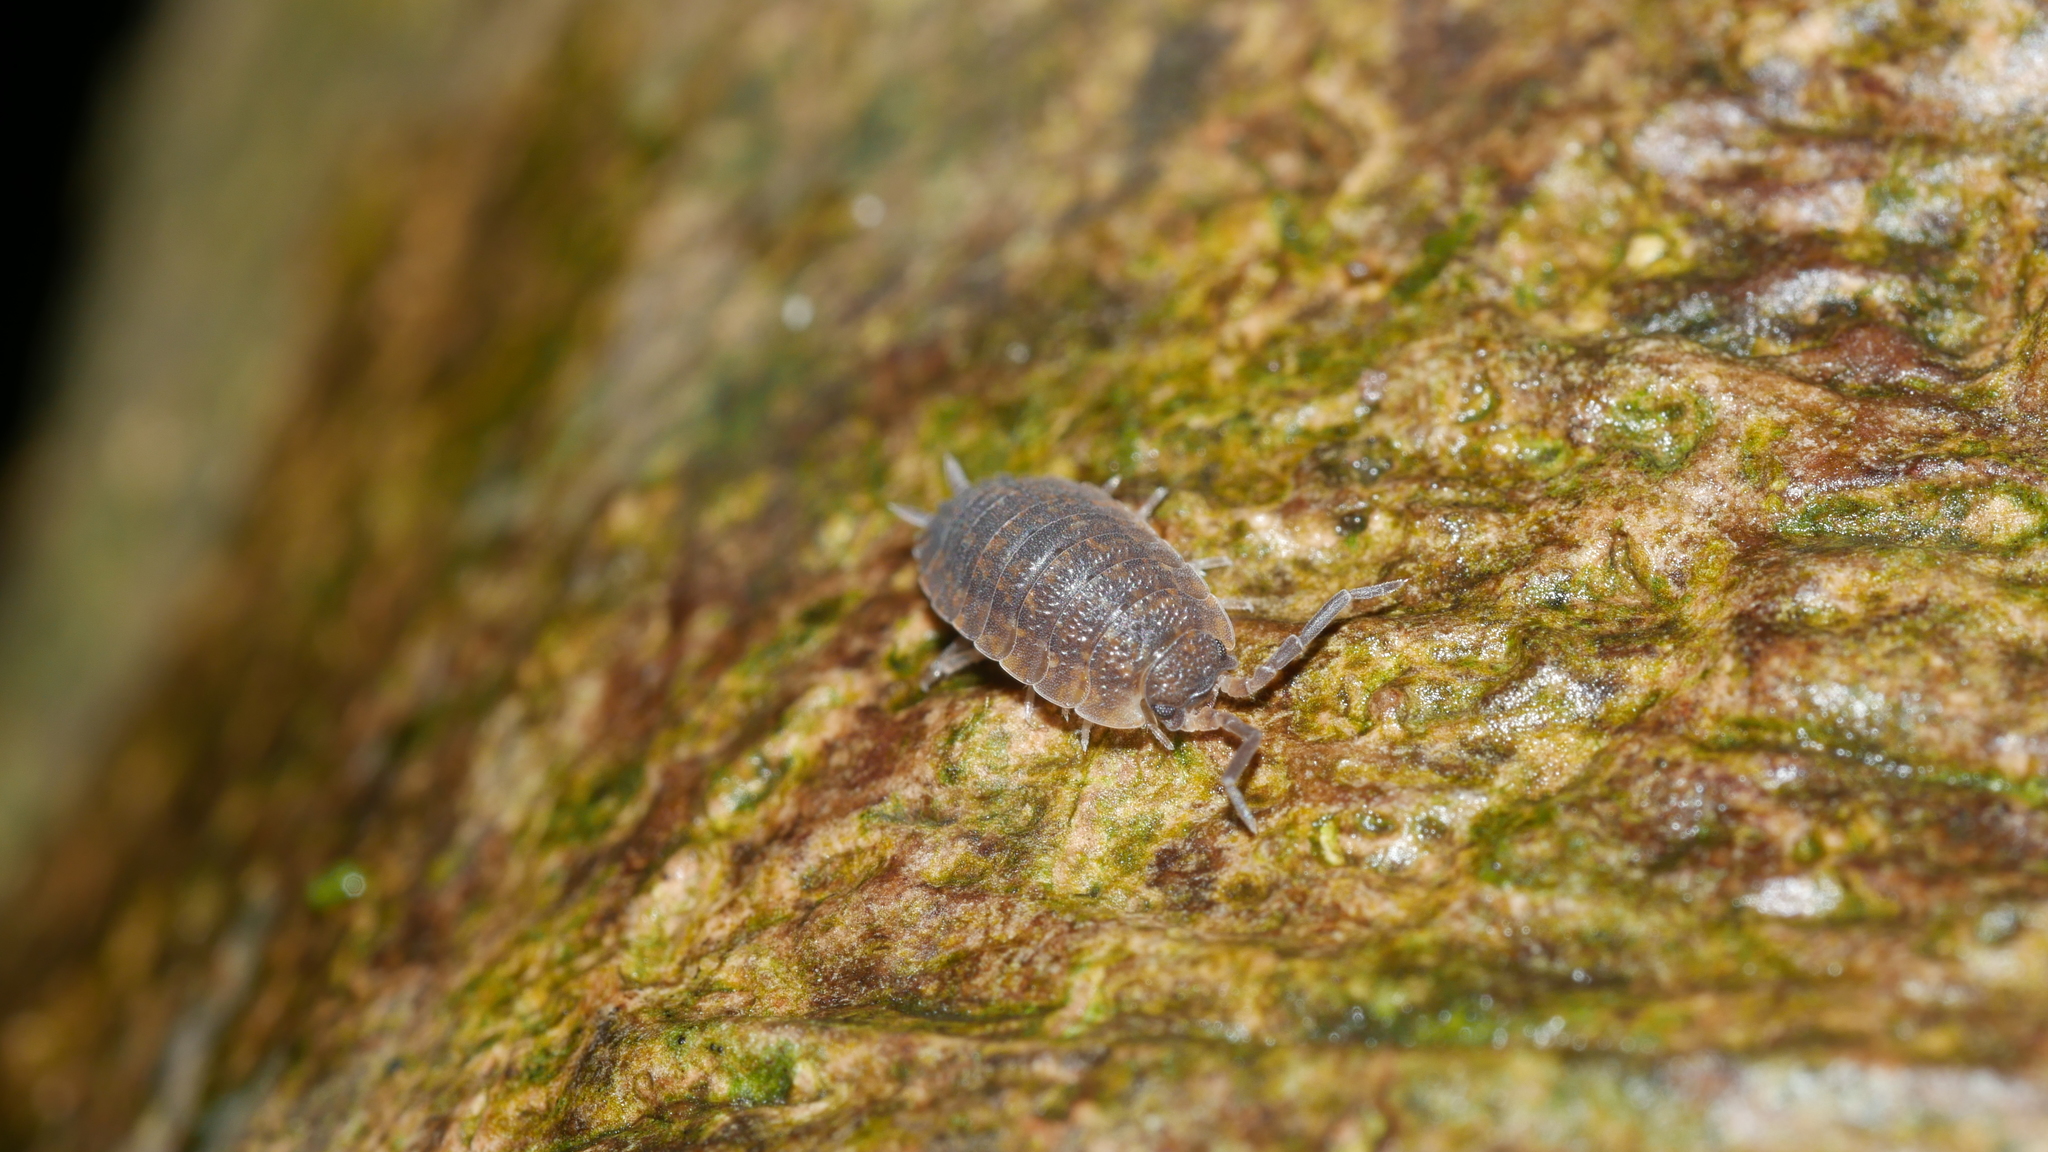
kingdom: Animalia
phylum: Arthropoda
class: Malacostraca
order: Isopoda
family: Porcellionidae
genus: Porcellio
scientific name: Porcellio scaber
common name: Common rough woodlouse
